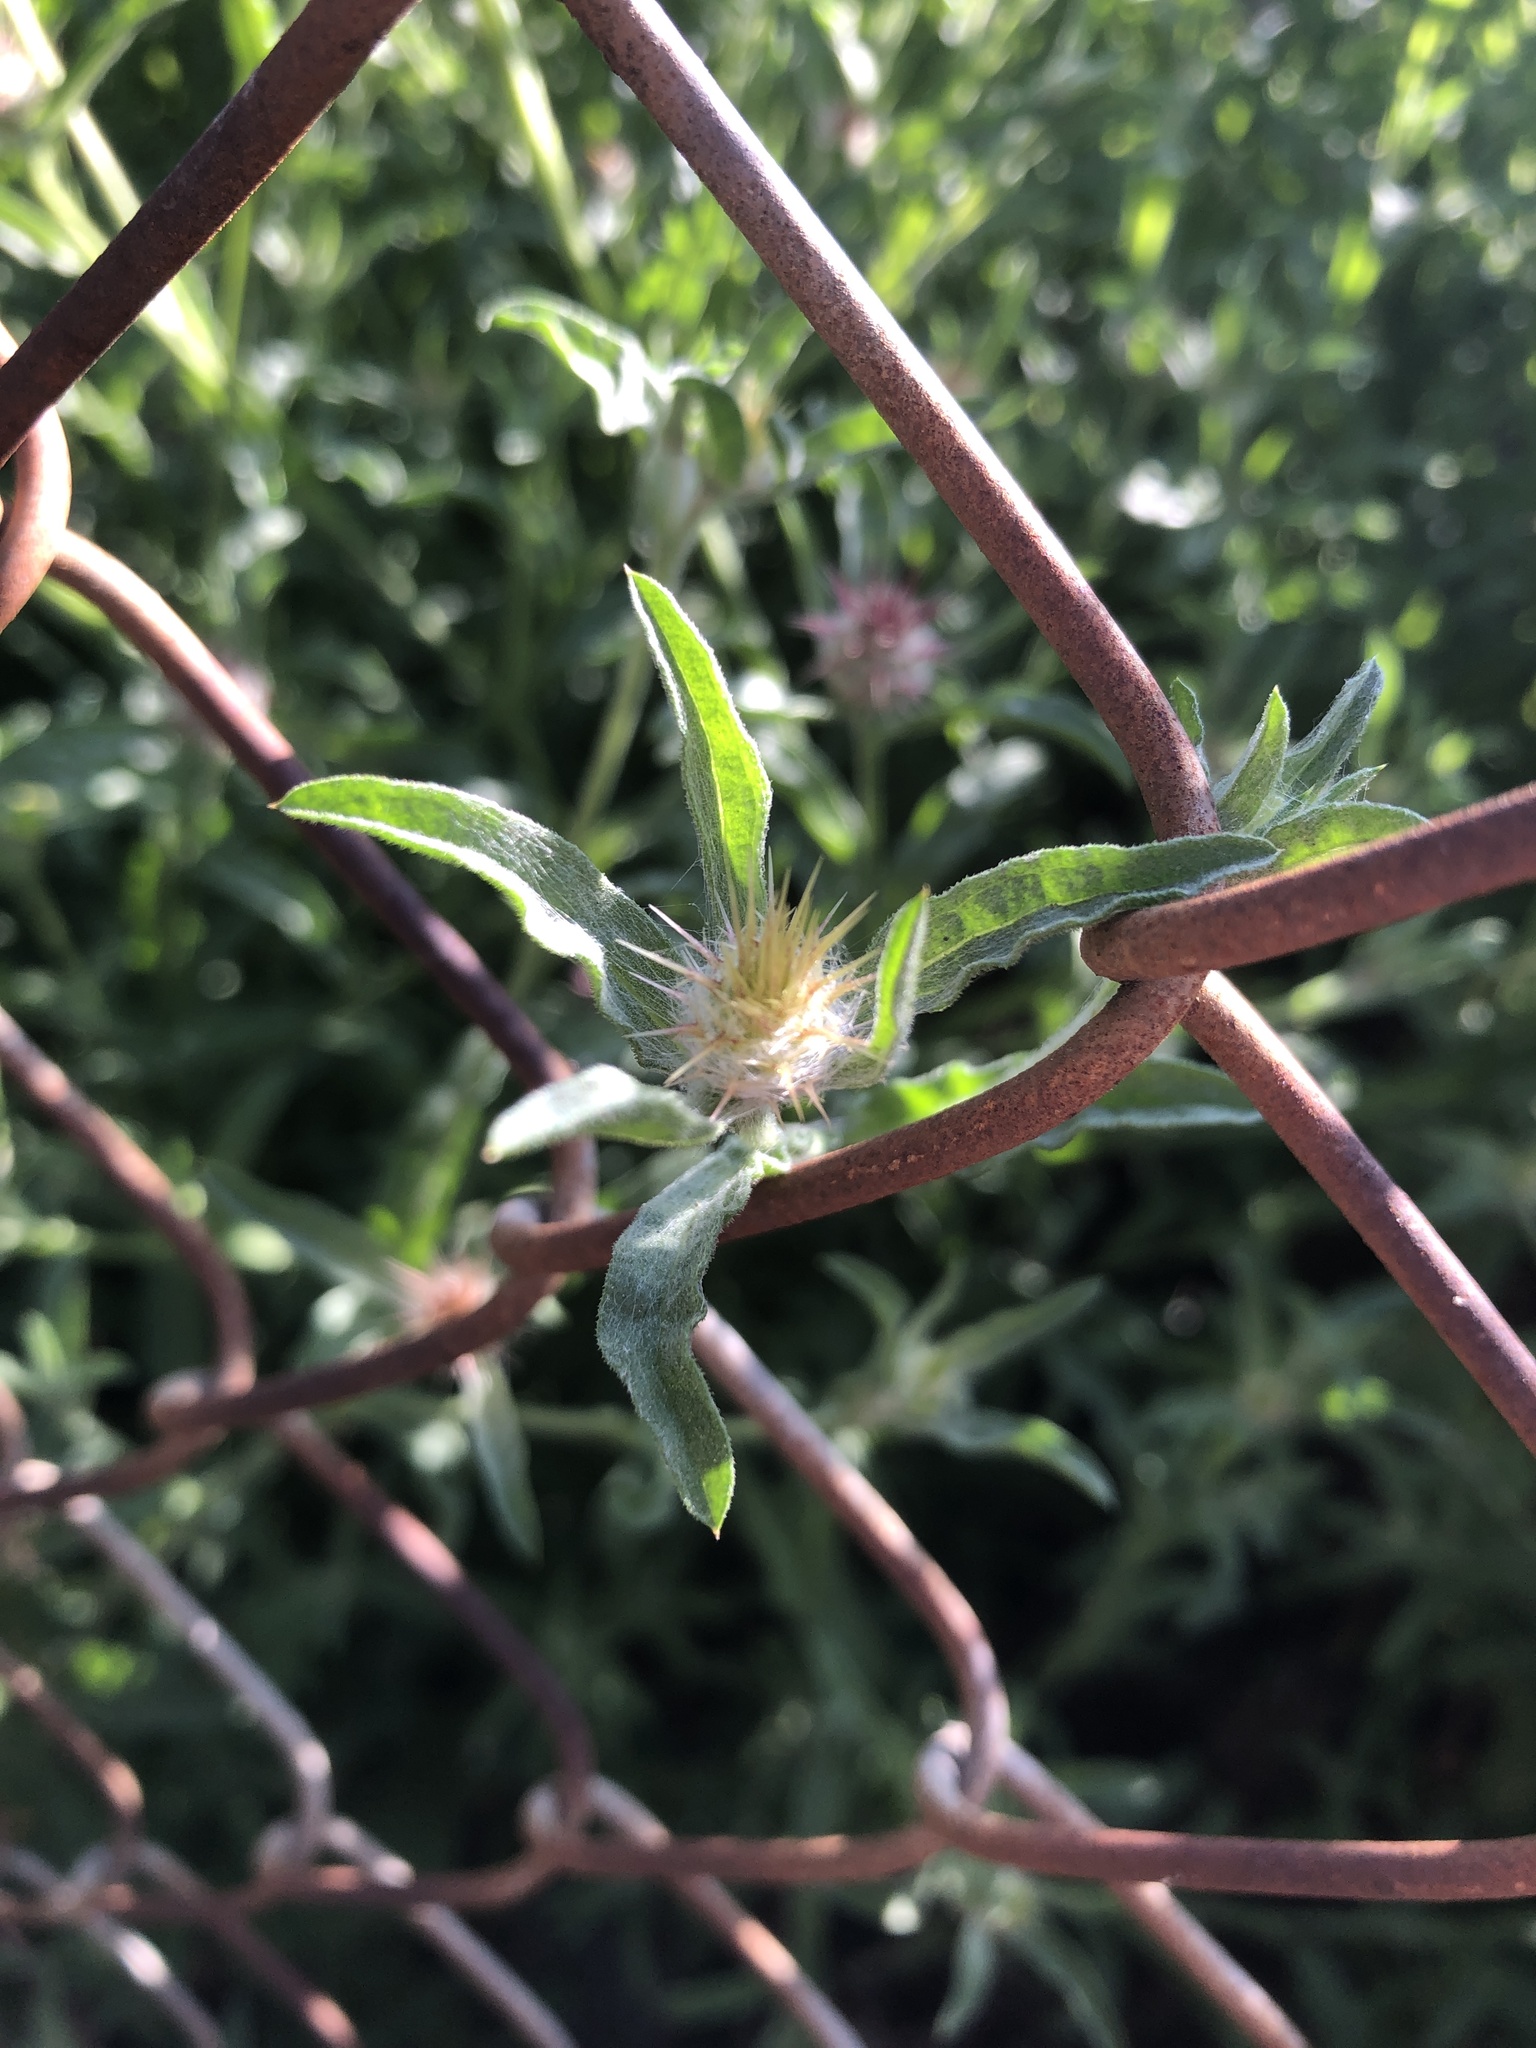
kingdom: Plantae
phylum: Tracheophyta
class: Magnoliopsida
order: Asterales
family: Asteraceae
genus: Centaurea
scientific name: Centaurea melitensis
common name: Maltese star-thistle
